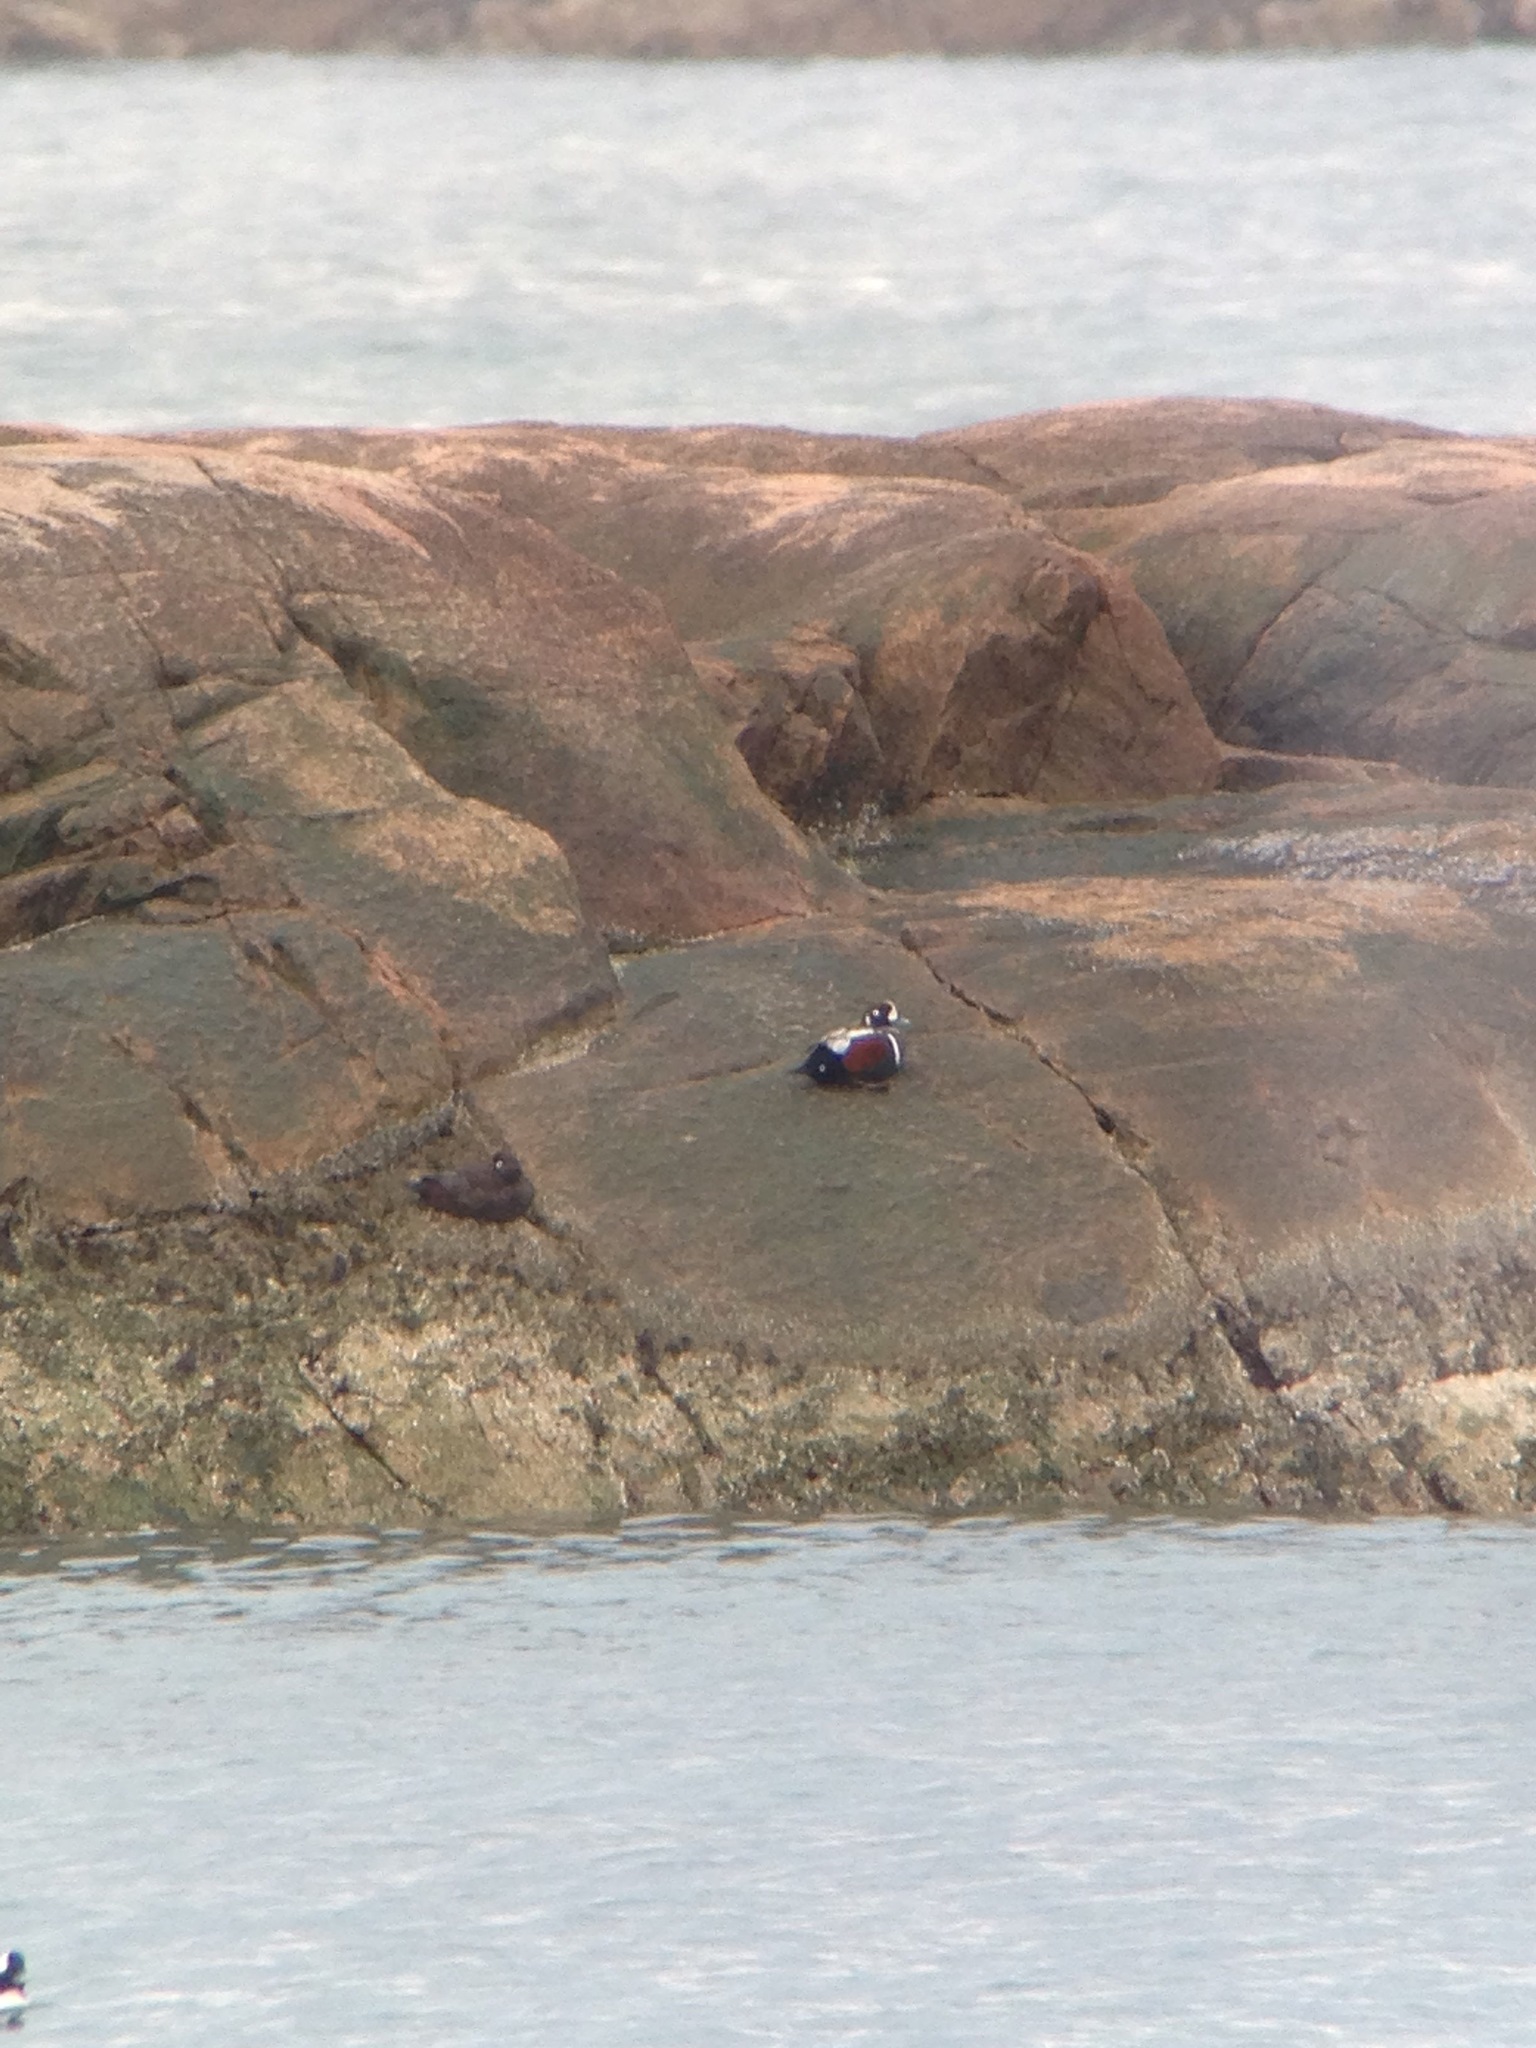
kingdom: Animalia
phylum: Chordata
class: Aves
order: Anseriformes
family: Anatidae
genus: Histrionicus
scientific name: Histrionicus histrionicus
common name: Harlequin duck
